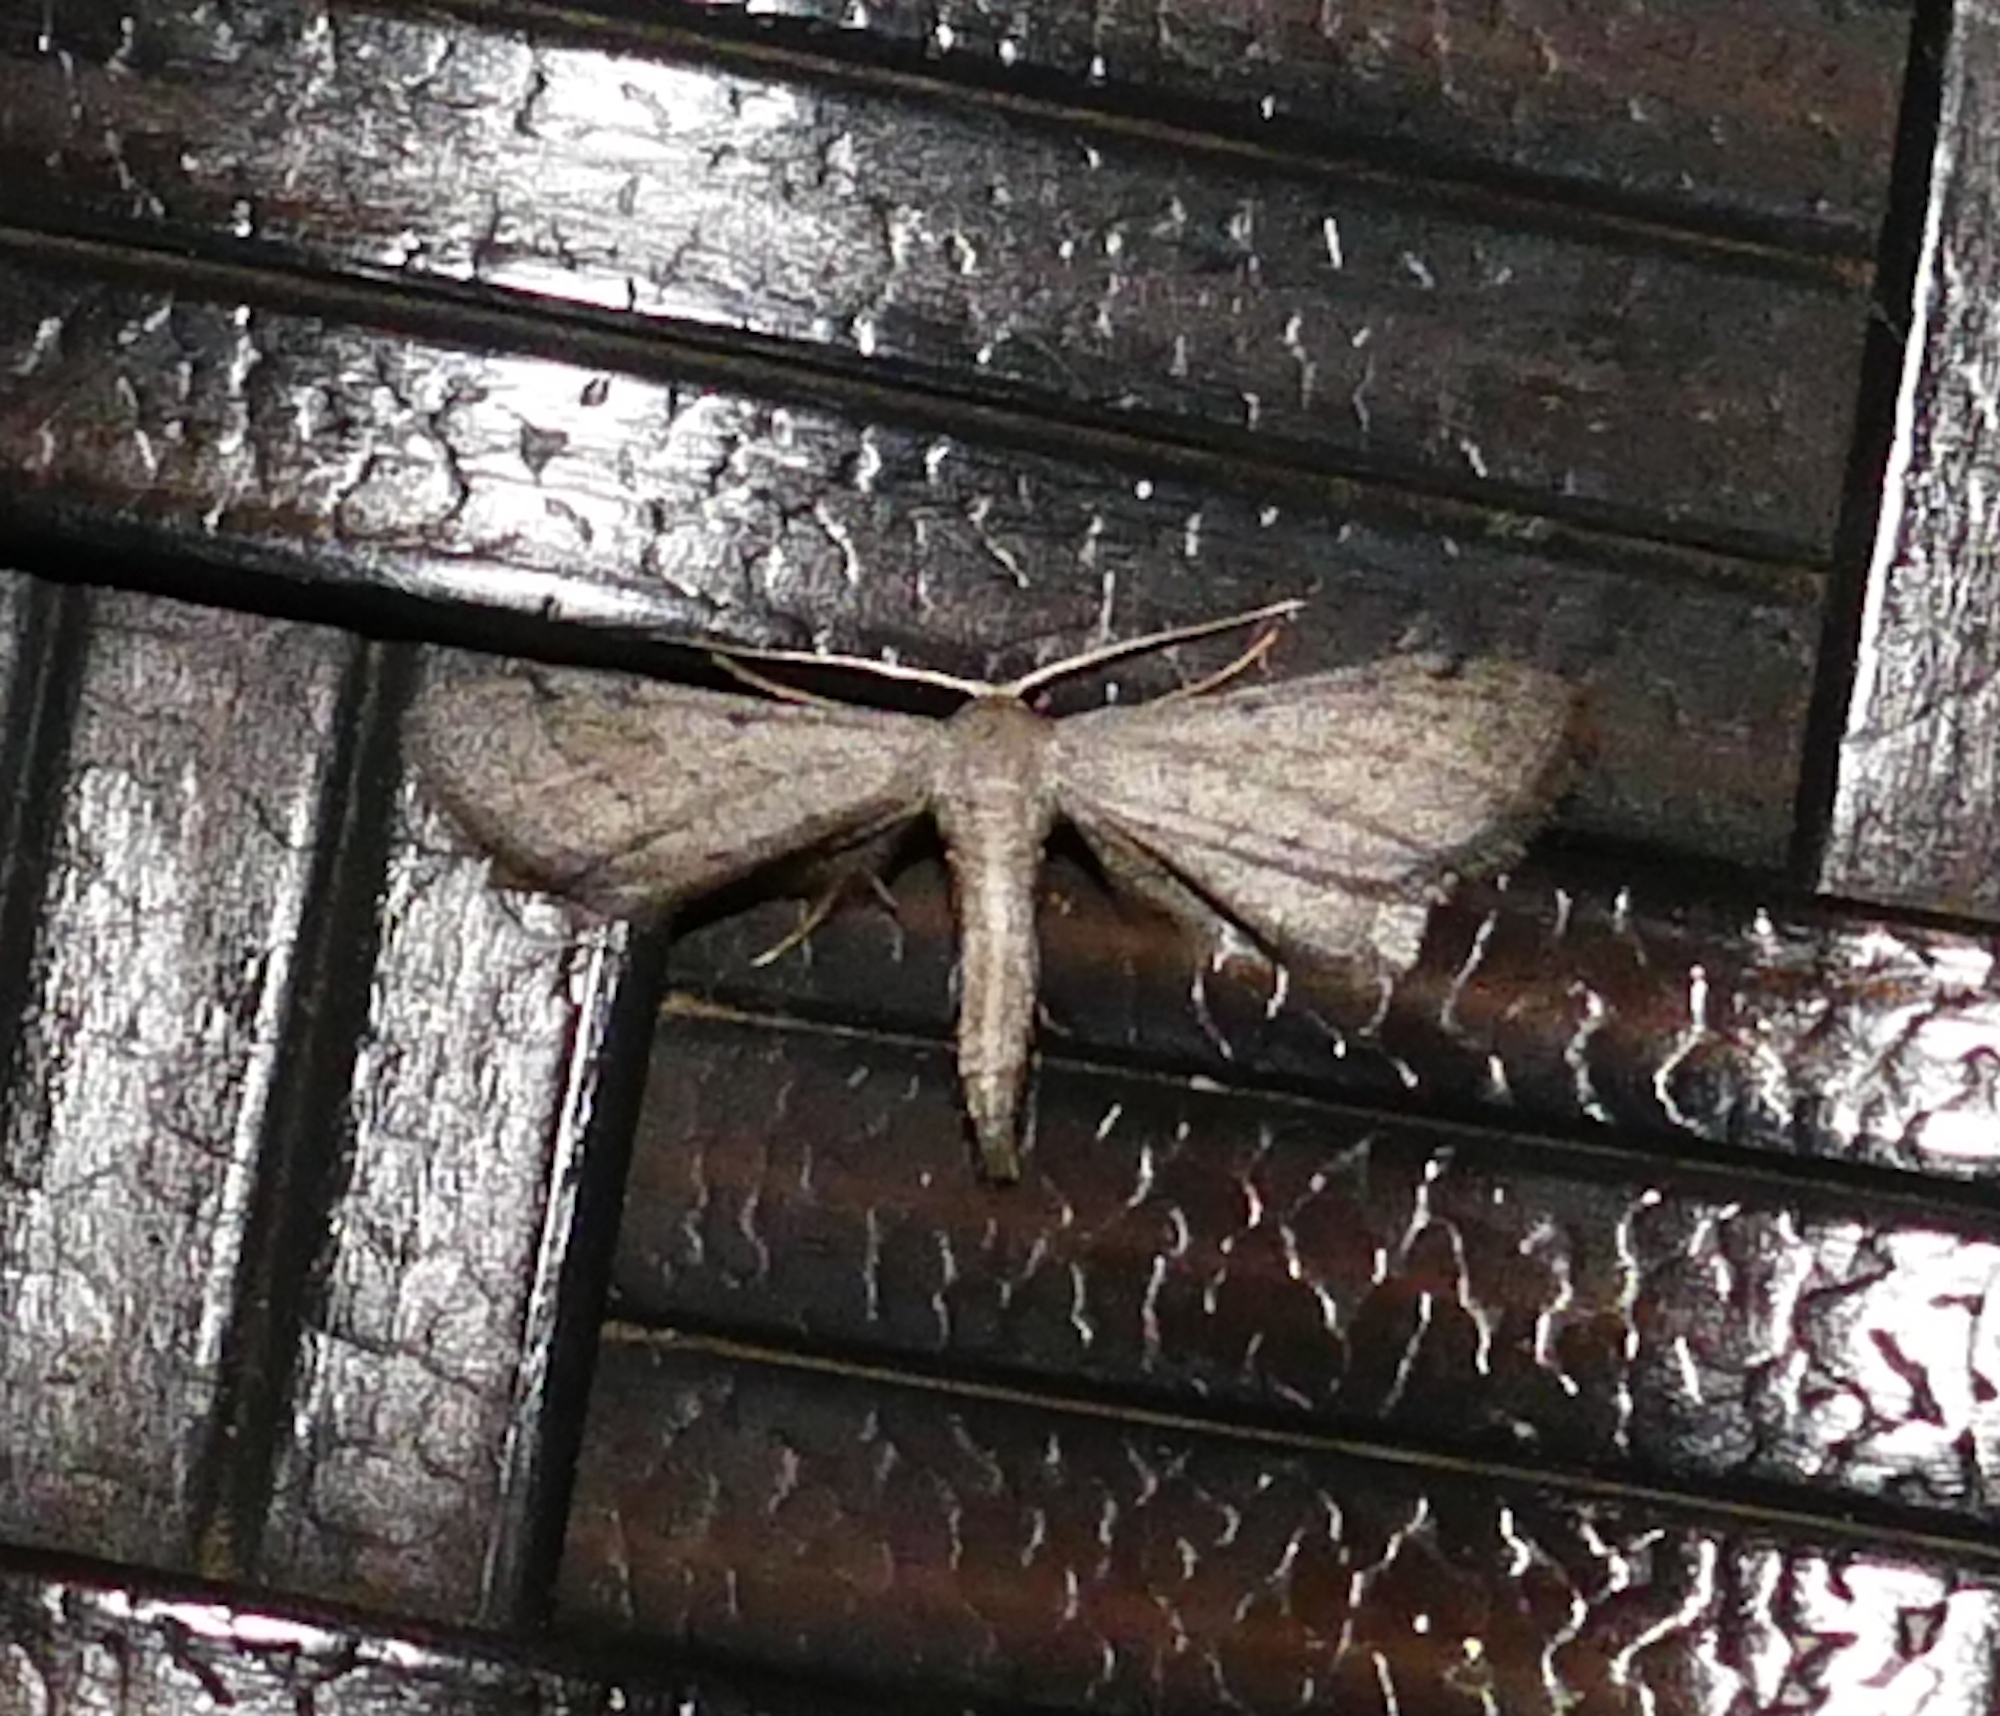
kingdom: Animalia
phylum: Arthropoda
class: Insecta
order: Lepidoptera
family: Geometridae
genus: Euacidalia
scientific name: Euacidalia sericearia
